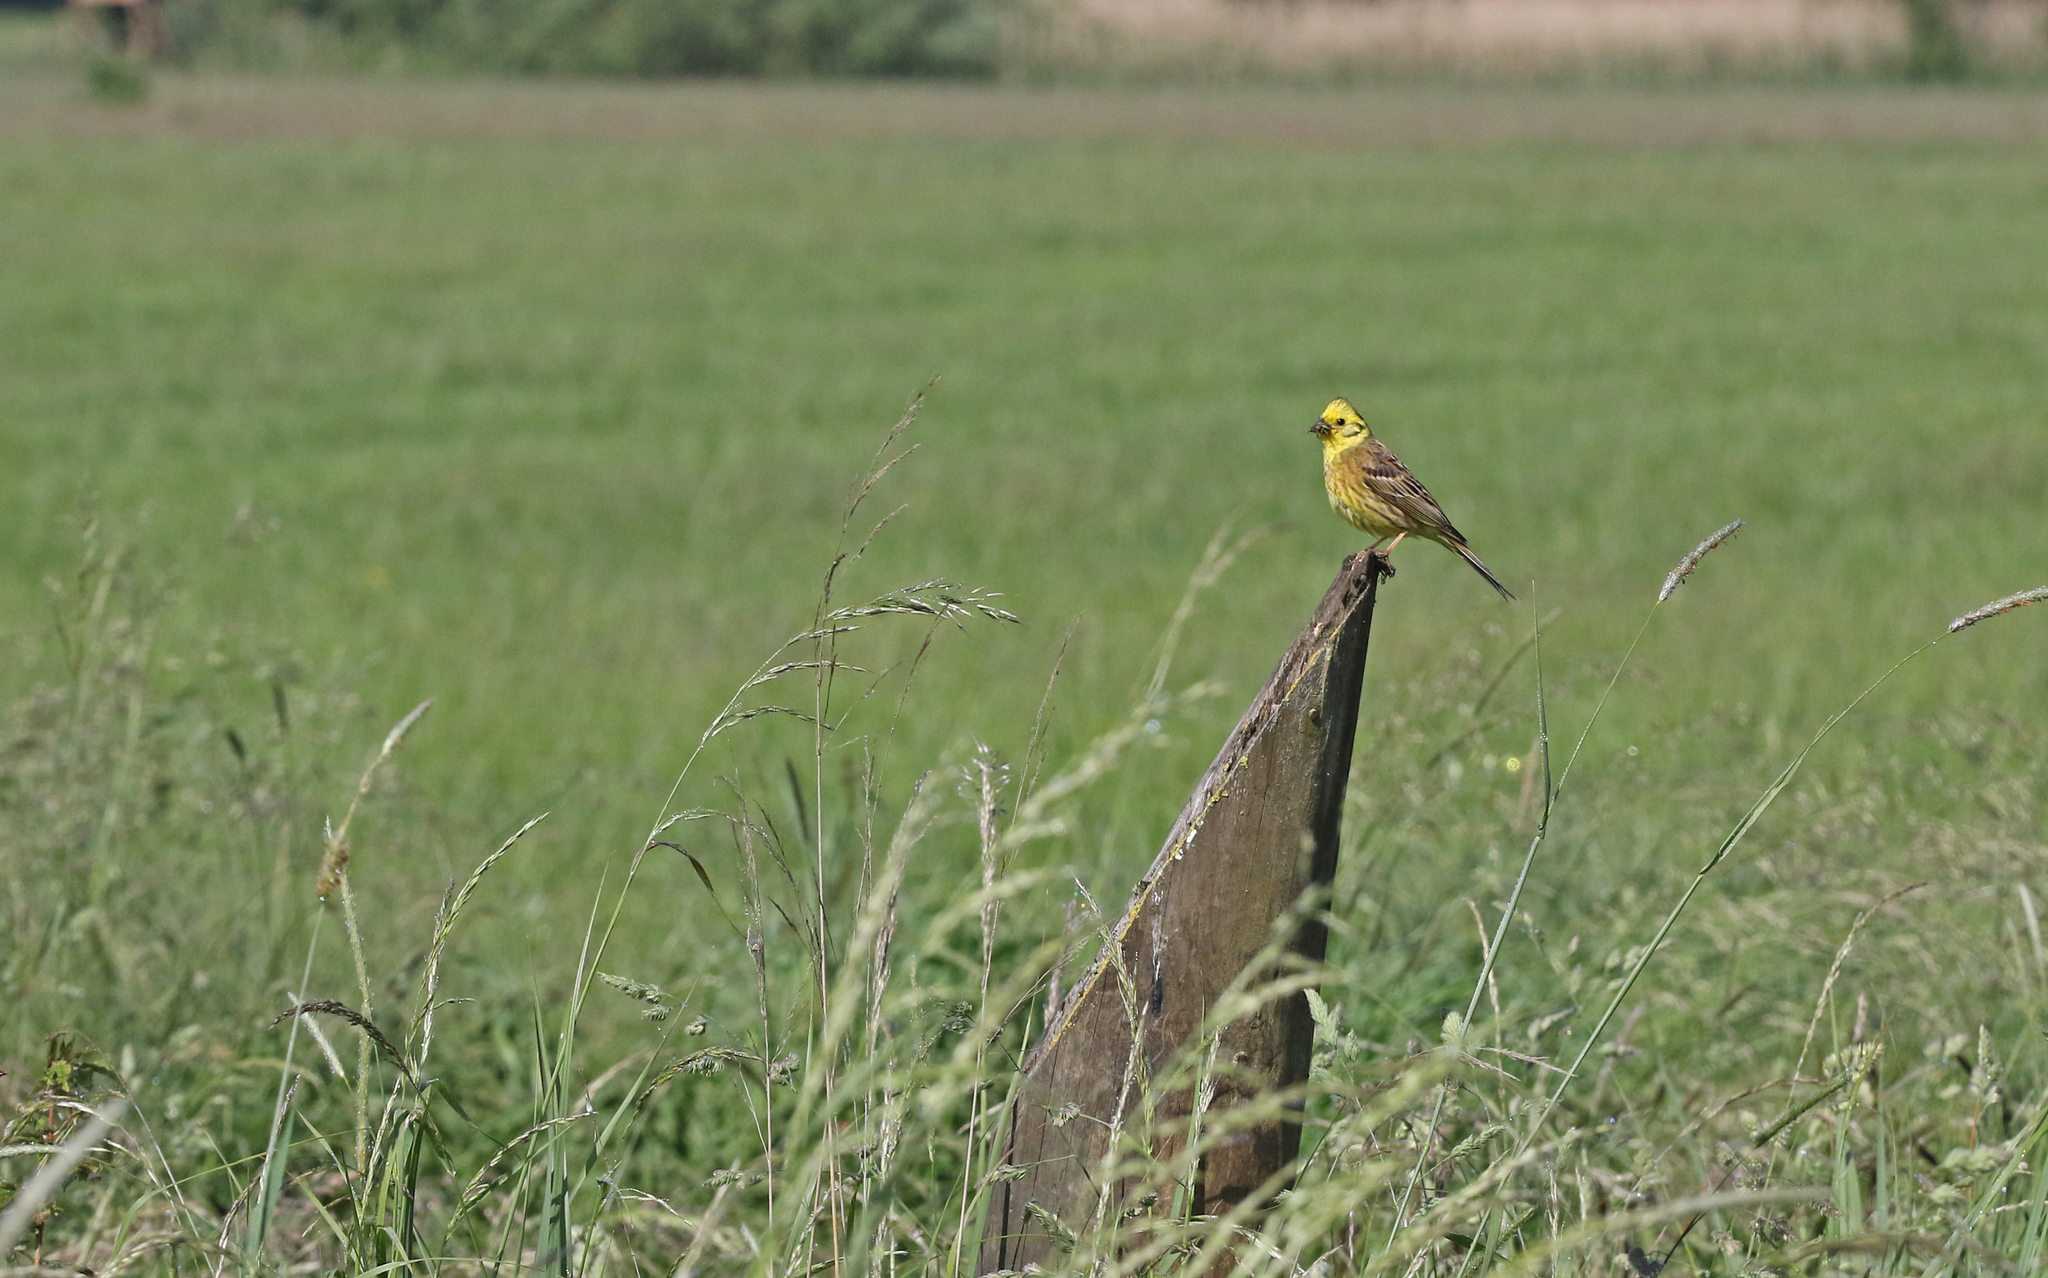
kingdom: Animalia
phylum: Chordata
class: Aves
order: Passeriformes
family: Emberizidae
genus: Emberiza
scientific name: Emberiza citrinella
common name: Yellowhammer
